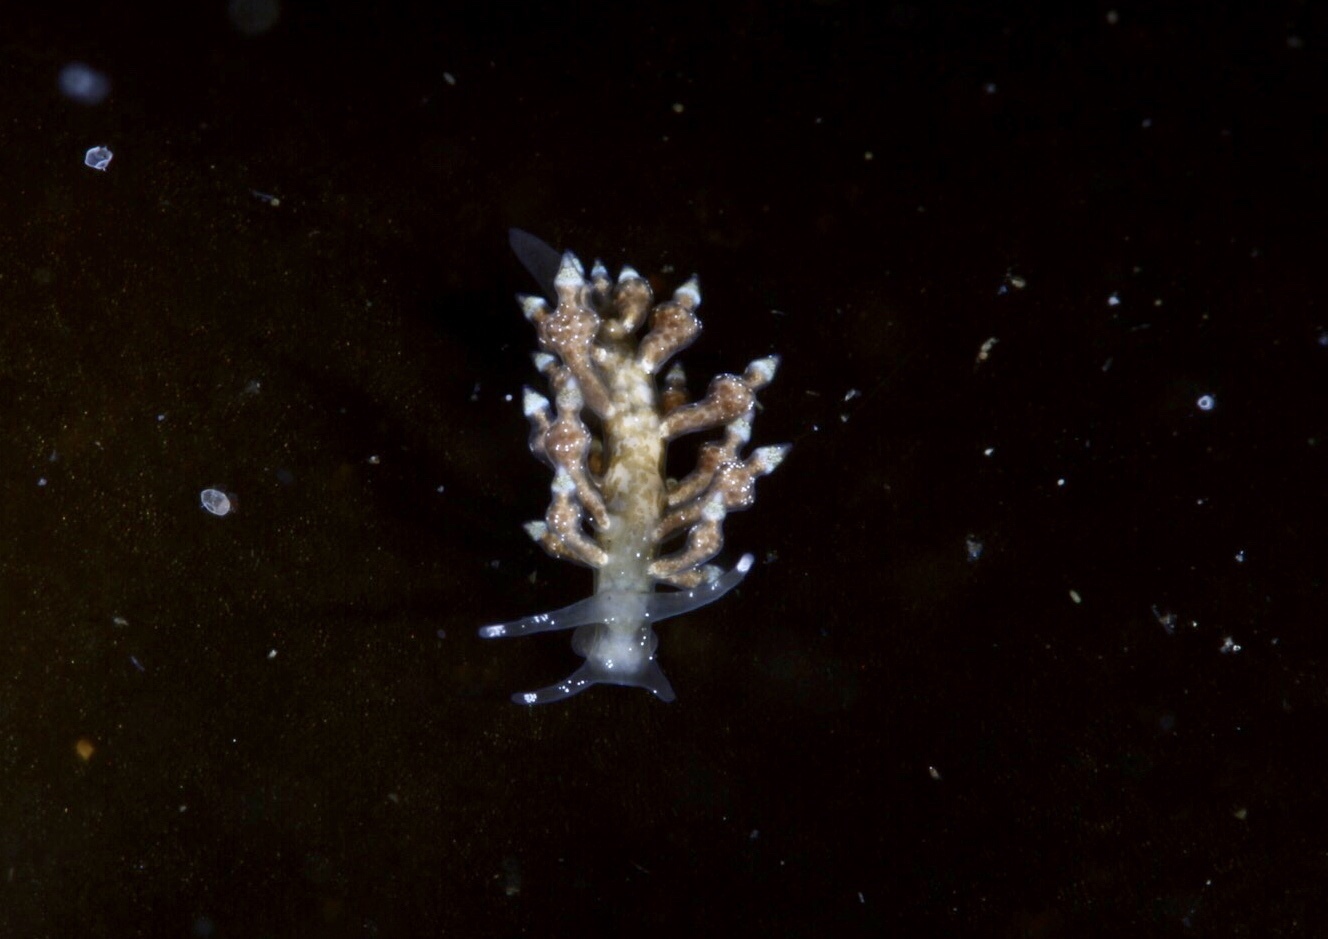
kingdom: Animalia
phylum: Mollusca
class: Gastropoda
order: Nudibranchia
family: Eubranchidae
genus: Eubranchus
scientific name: Eubranchus scintillans
